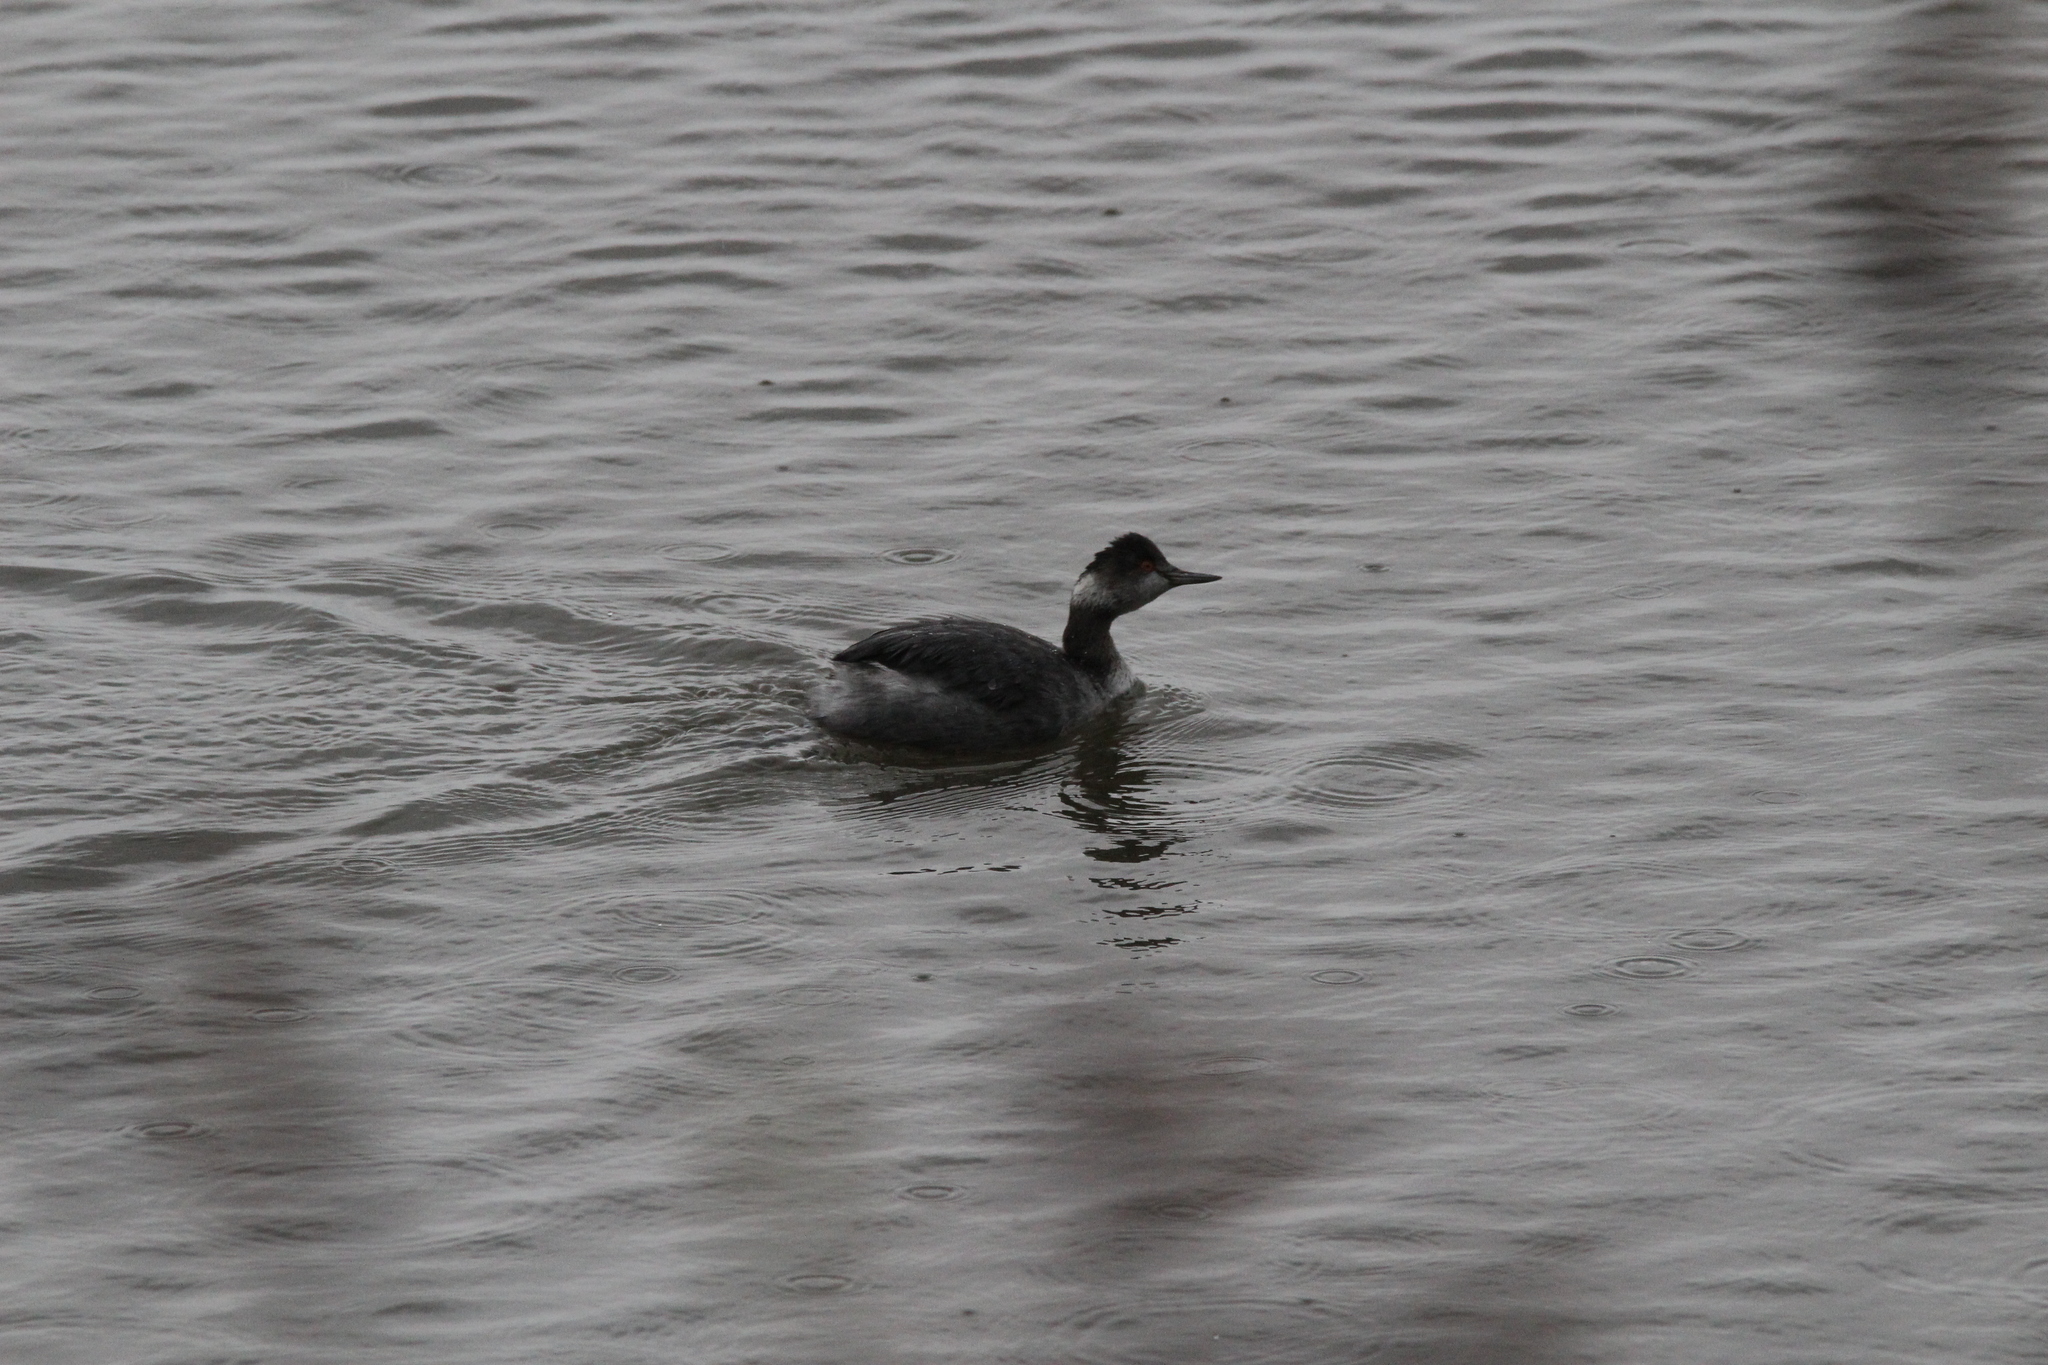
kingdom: Animalia
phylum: Chordata
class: Aves
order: Podicipediformes
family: Podicipedidae
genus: Podiceps
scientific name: Podiceps nigricollis
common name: Black-necked grebe
